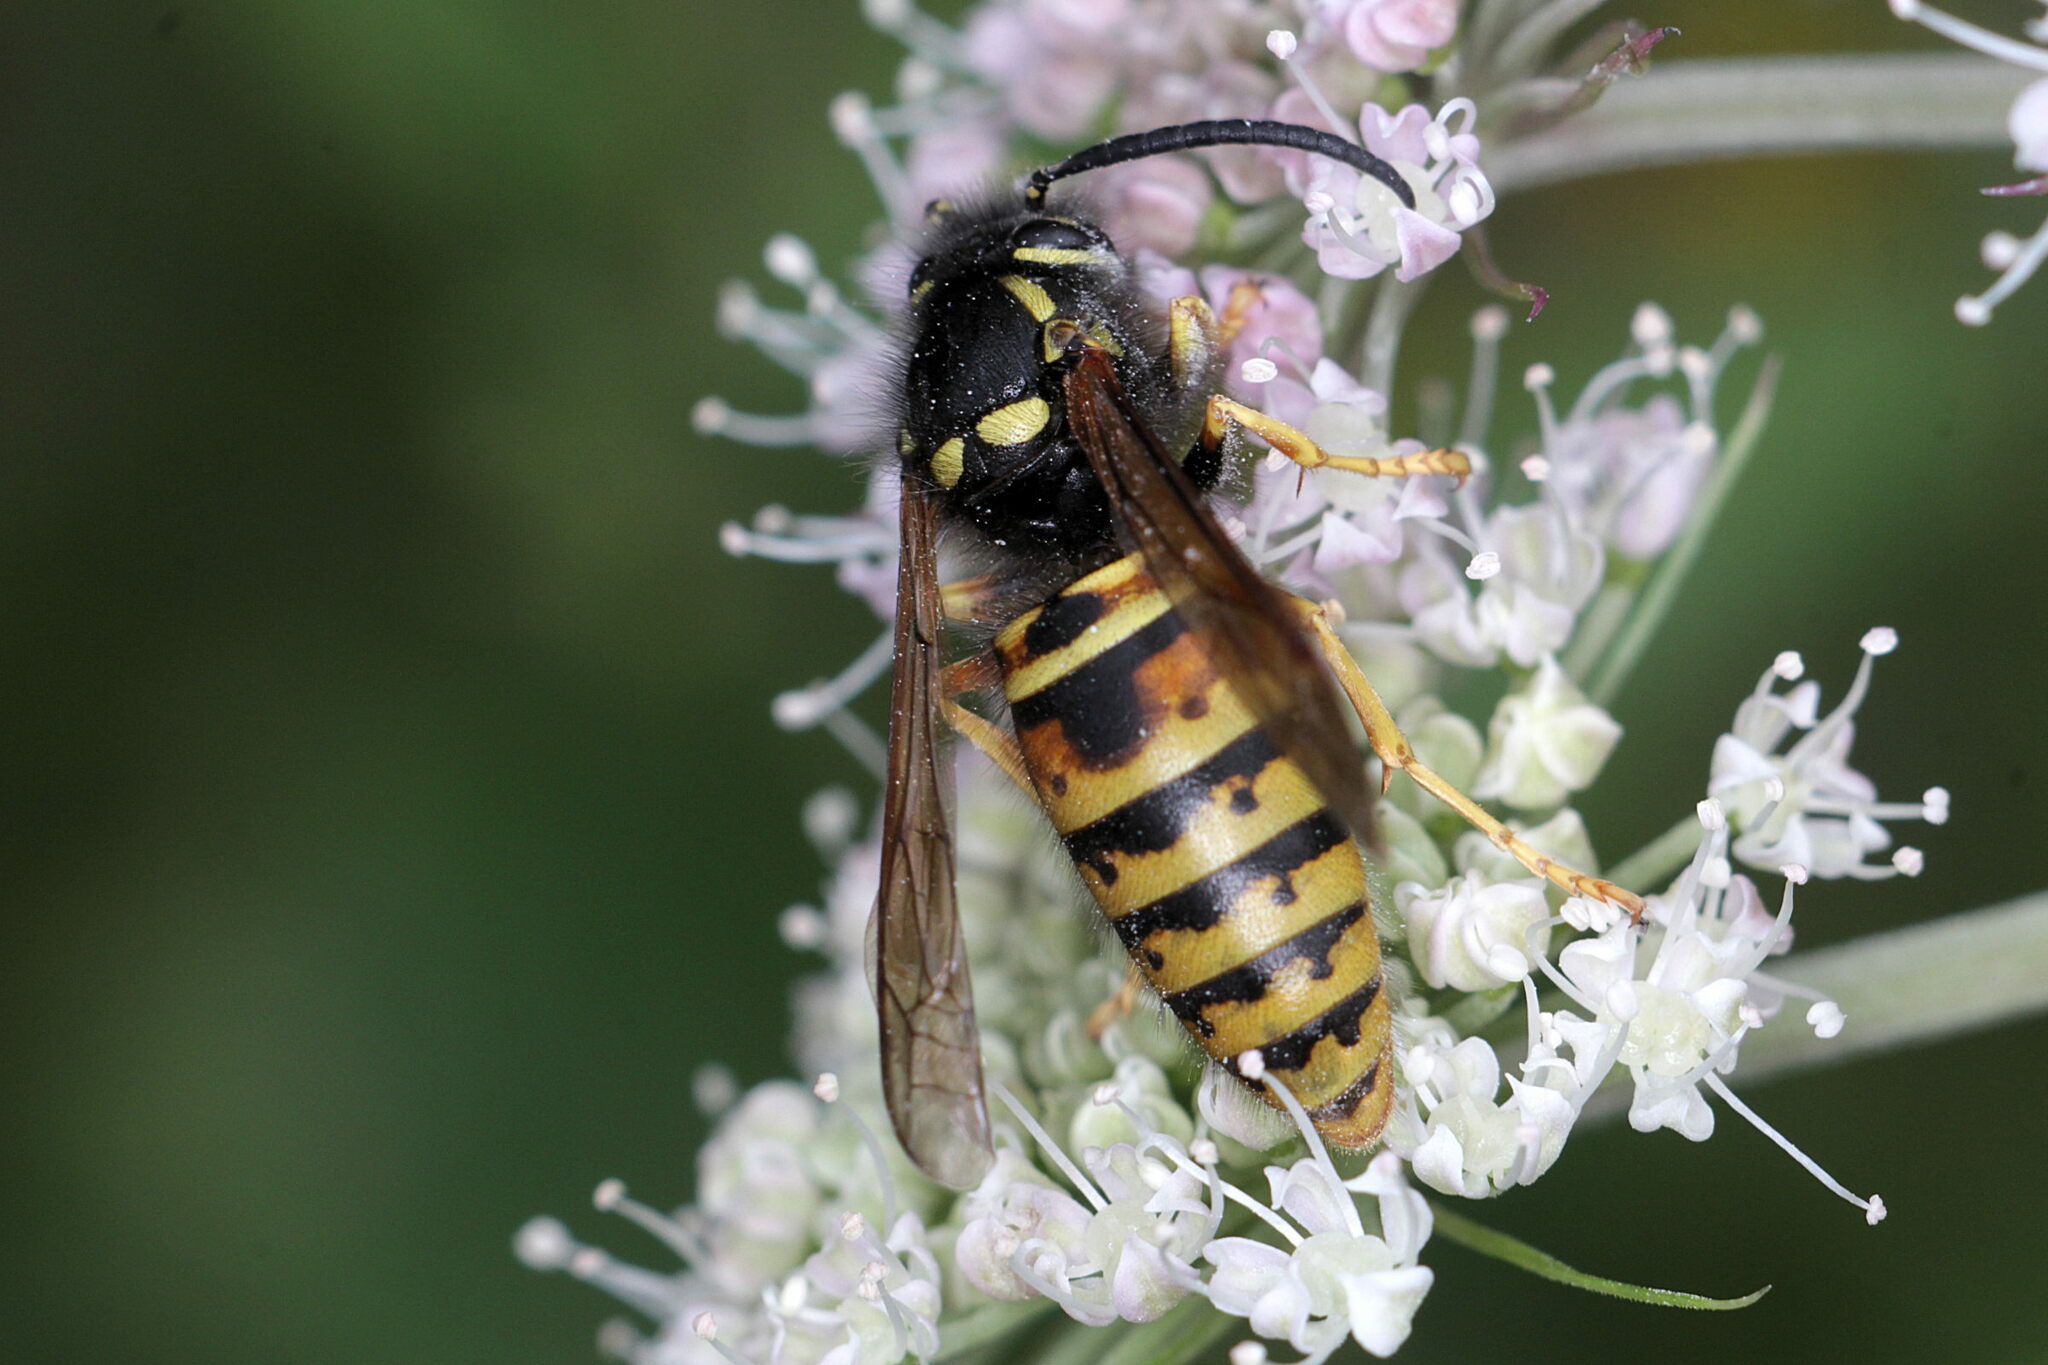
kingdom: Animalia
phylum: Arthropoda
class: Insecta
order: Hymenoptera
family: Vespidae
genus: Vespula
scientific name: Vespula rufa
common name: Red wasp
